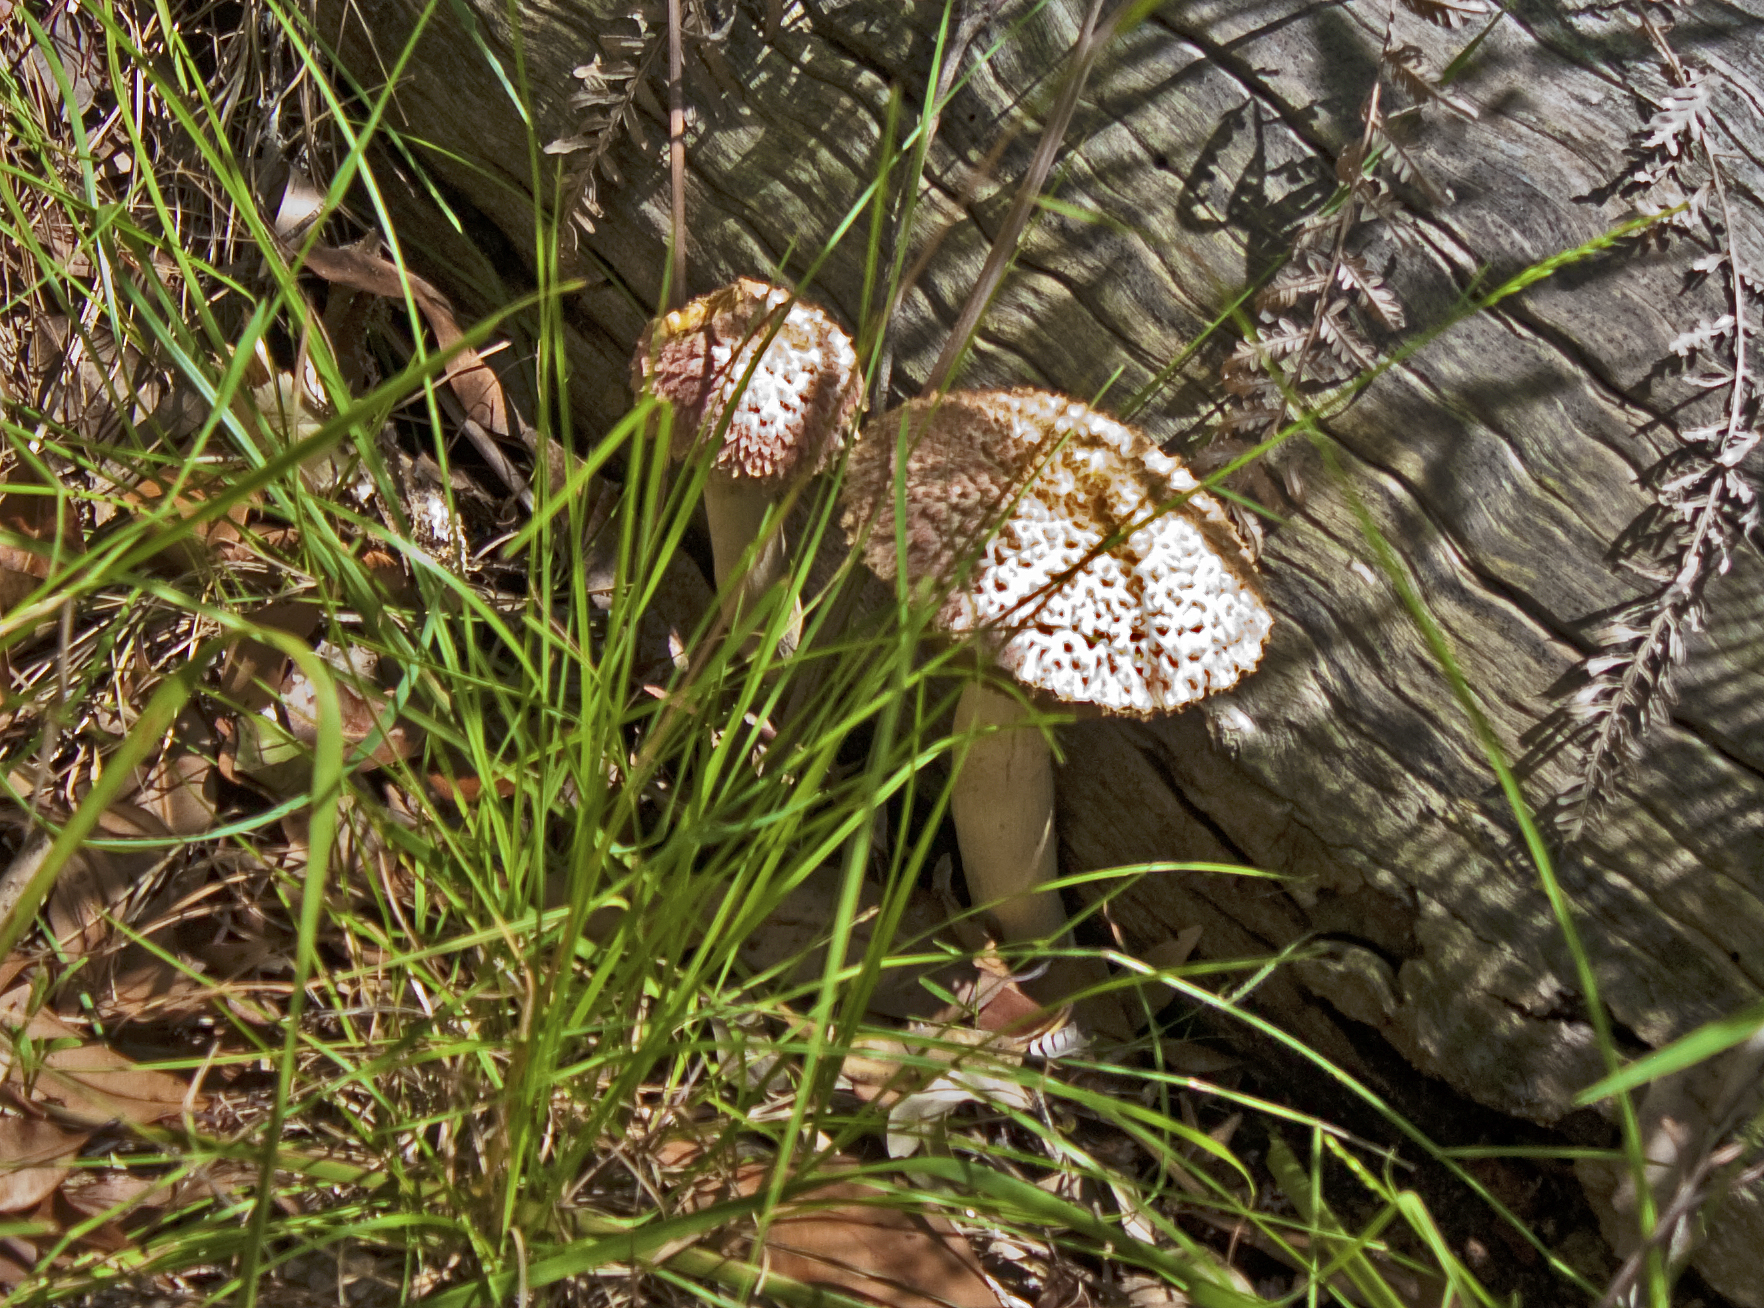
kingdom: Fungi
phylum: Basidiomycota
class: Agaricomycetes
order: Boletales
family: Boletaceae
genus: Boletellus
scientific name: Boletellus emodensis
